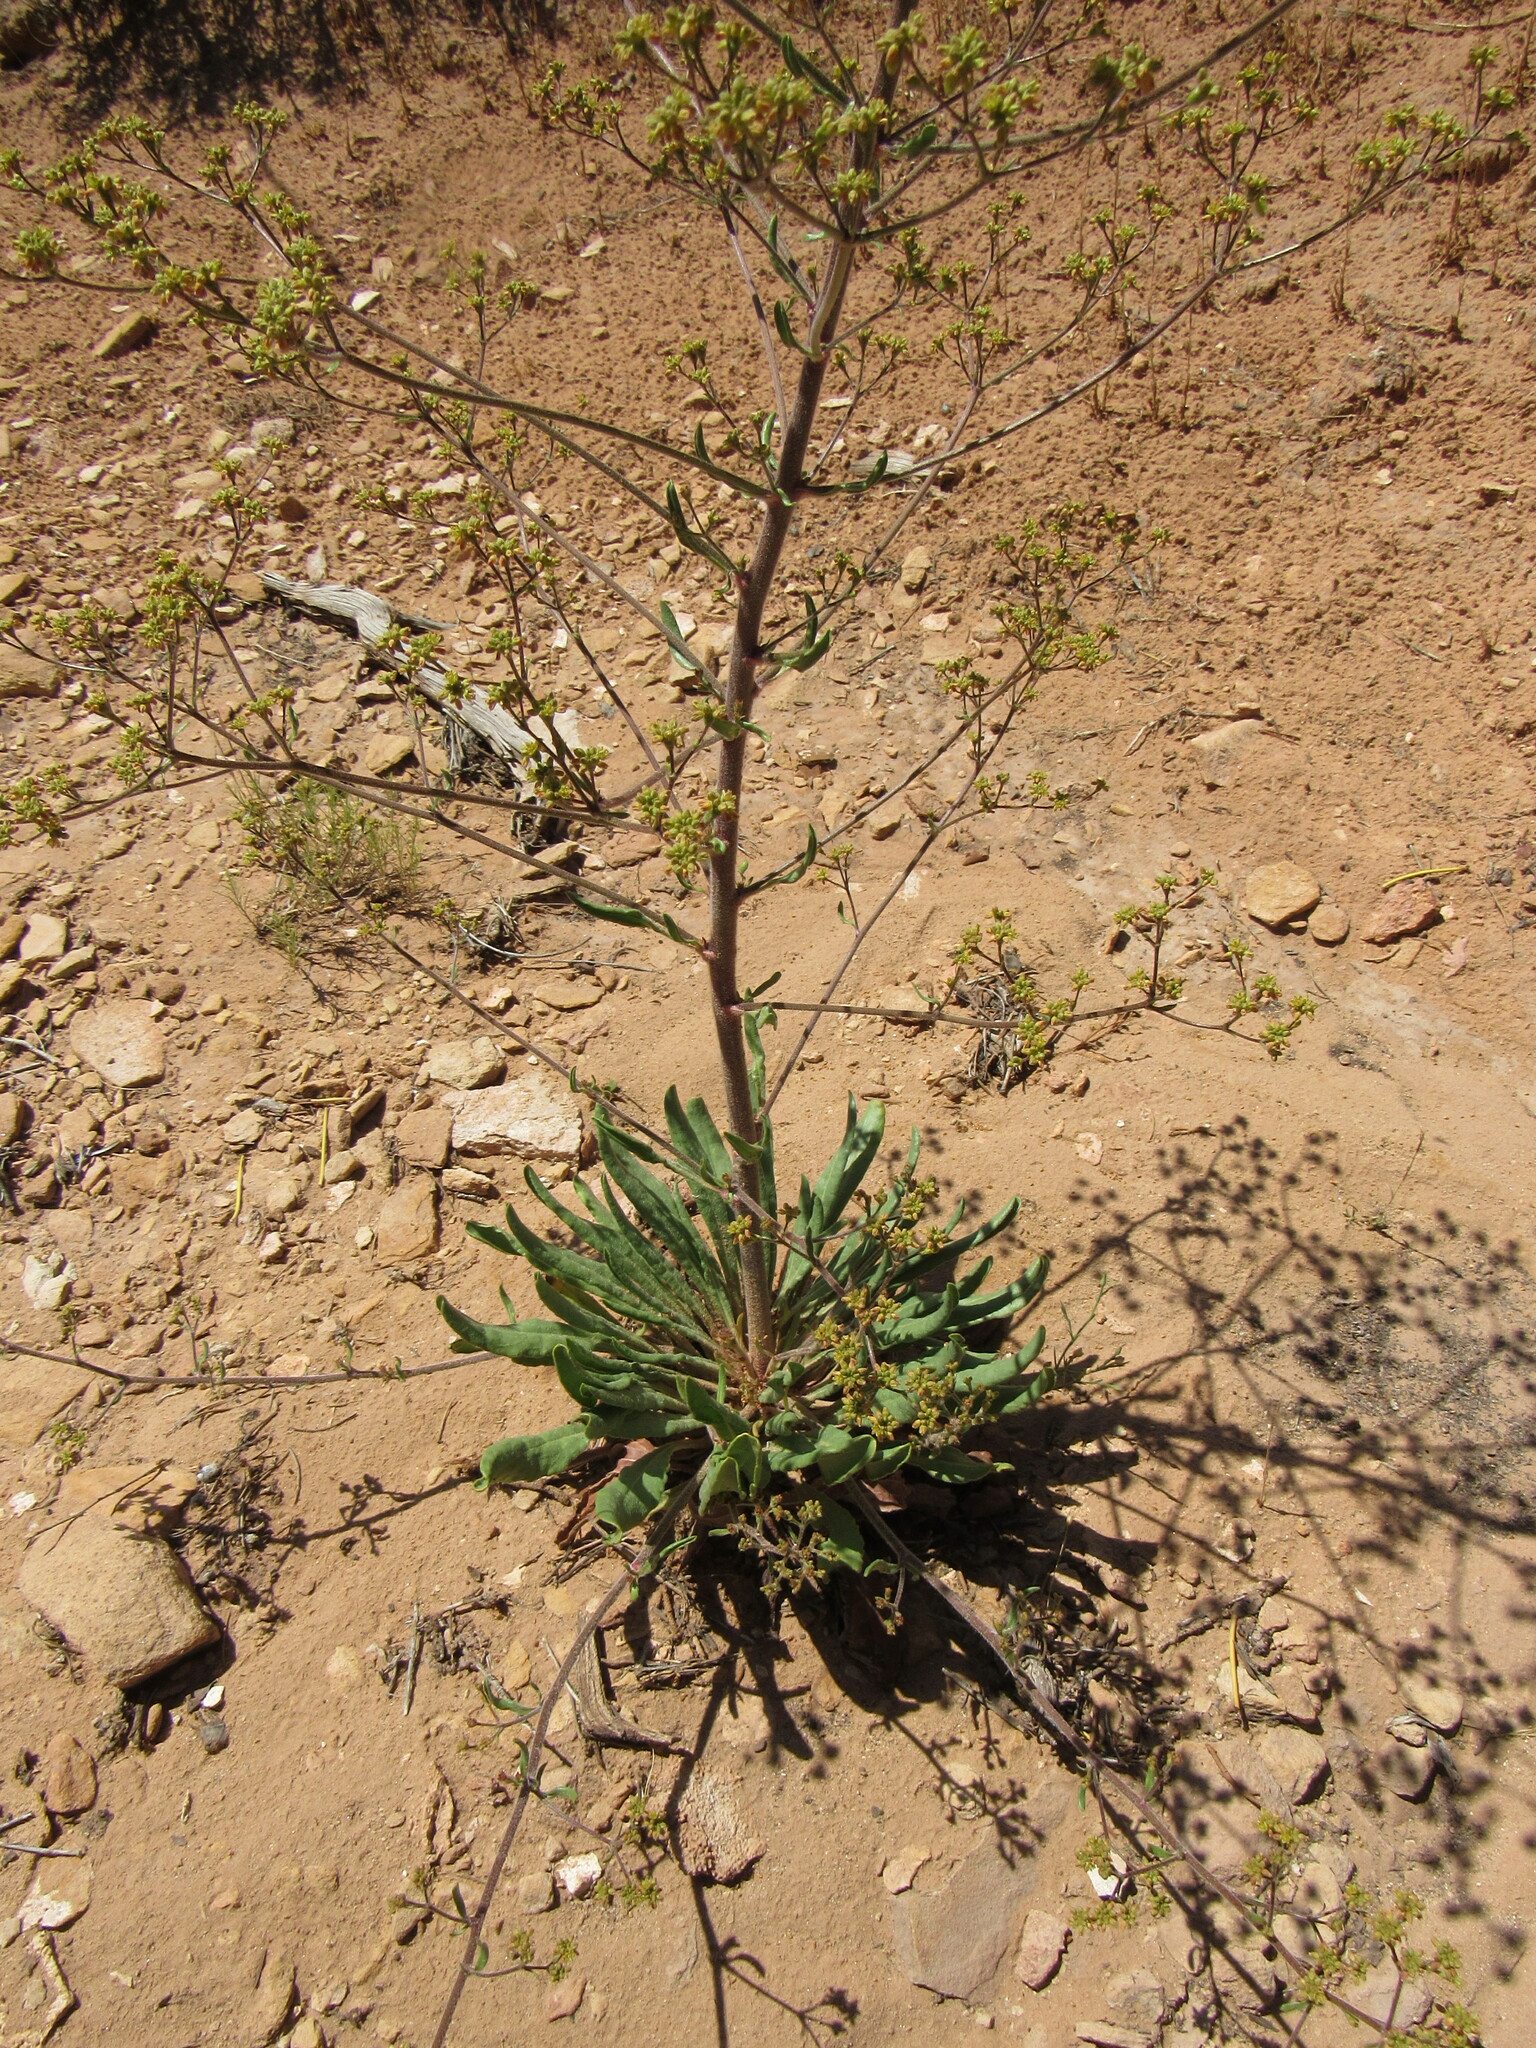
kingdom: Plantae
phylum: Tracheophyta
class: Magnoliopsida
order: Caryophyllales
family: Polygonaceae
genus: Eriogonum
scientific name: Eriogonum alatum
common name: Winged eriogonum
